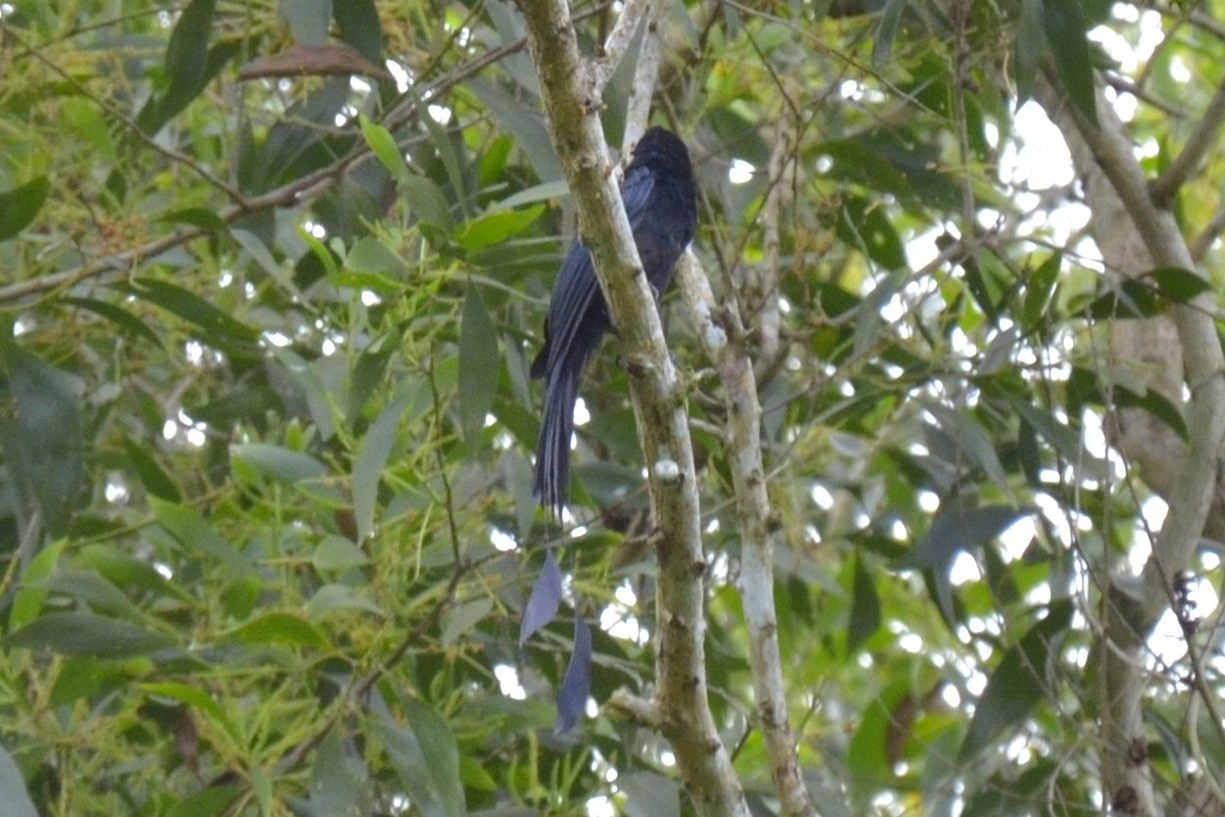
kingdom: Animalia
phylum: Chordata
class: Aves
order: Passeriformes
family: Dicruridae
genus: Dicrurus
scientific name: Dicrurus paradiseus
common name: Greater racket-tailed drongo
